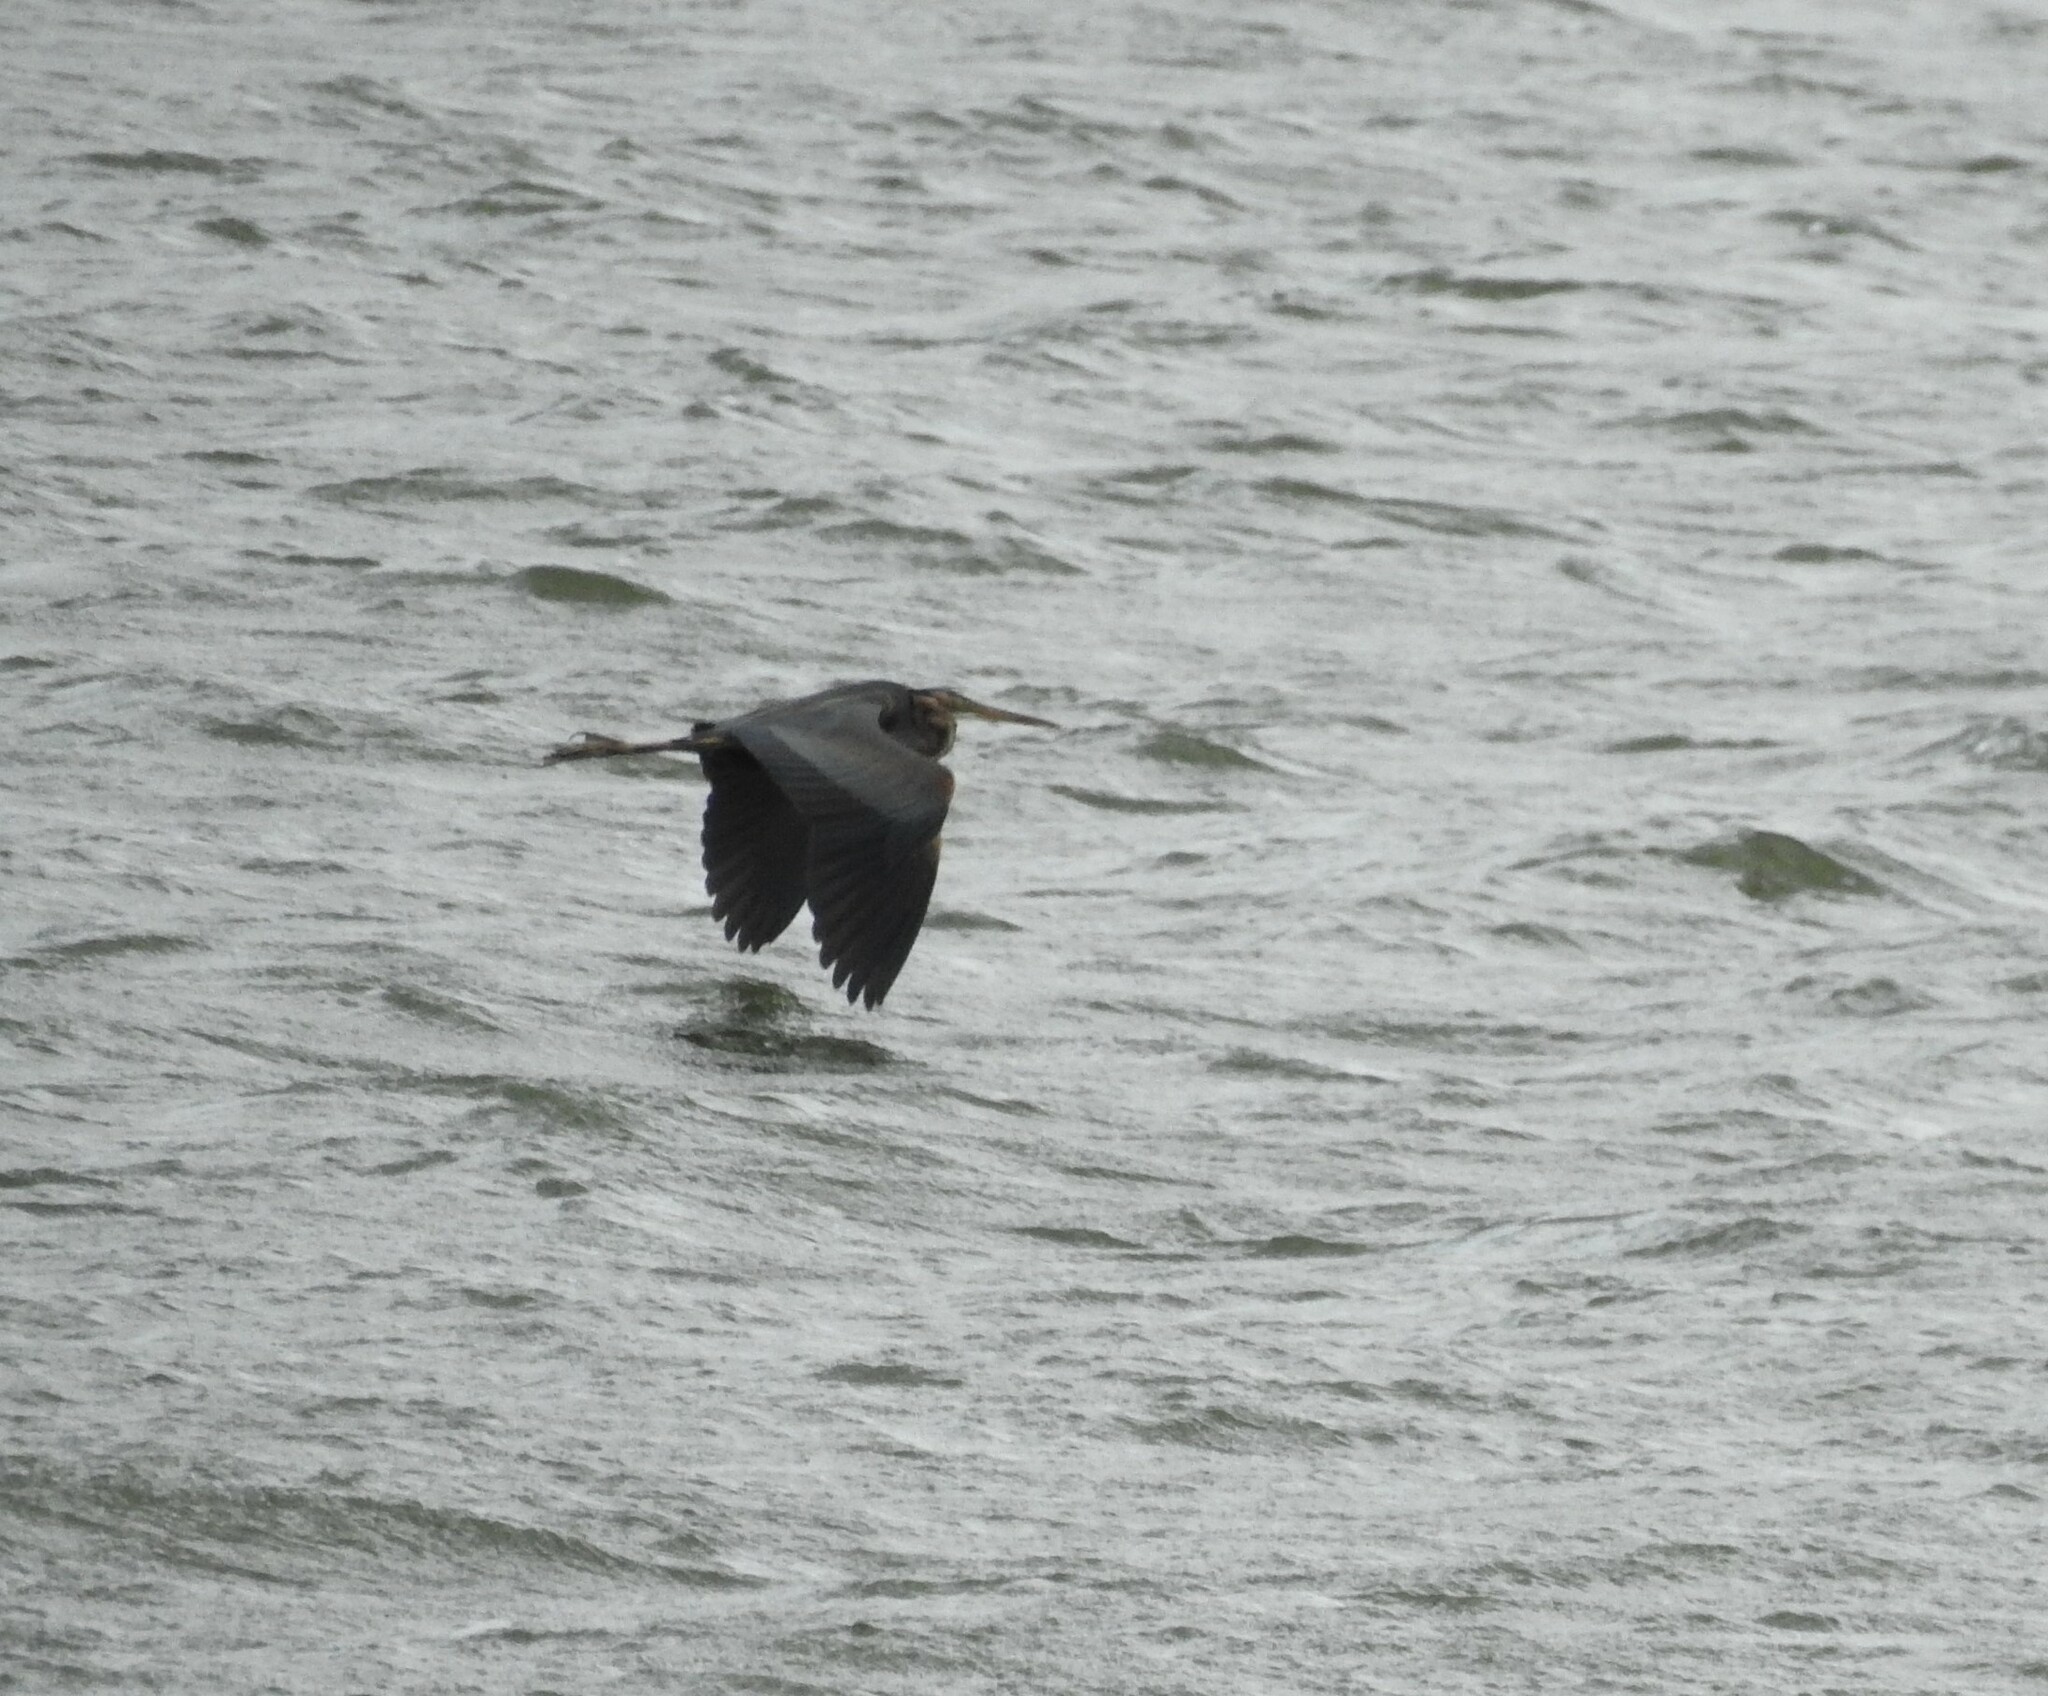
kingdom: Animalia
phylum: Chordata
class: Aves
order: Pelecaniformes
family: Ardeidae
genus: Ardea
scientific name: Ardea purpurea
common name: Purple heron
